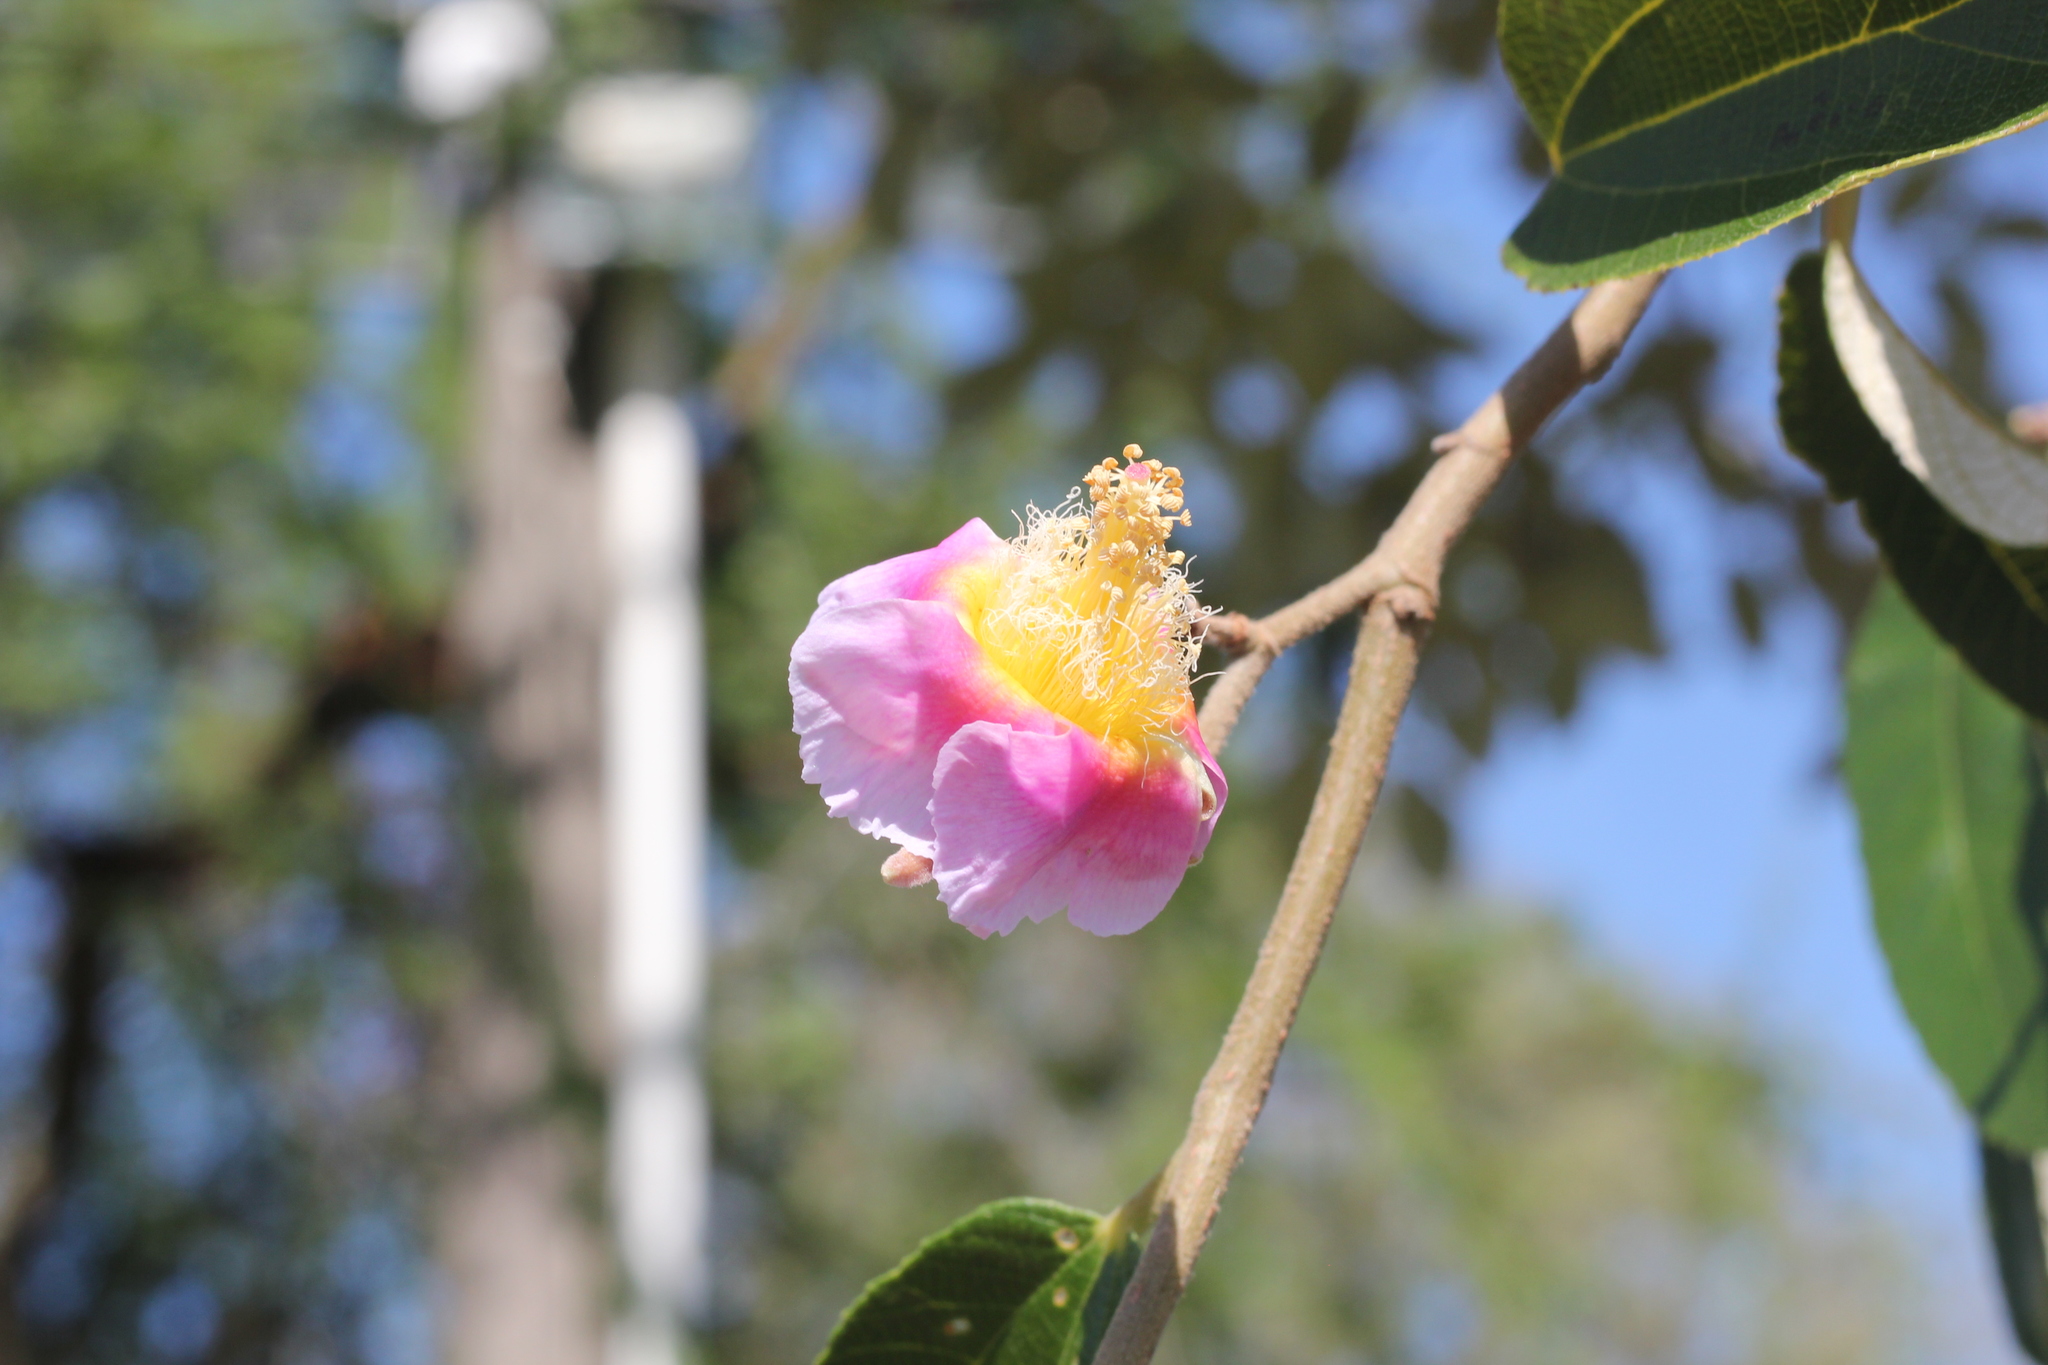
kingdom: Plantae
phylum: Tracheophyta
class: Magnoliopsida
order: Malvales
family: Malvaceae
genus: Luehea
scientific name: Luehea divaricata
